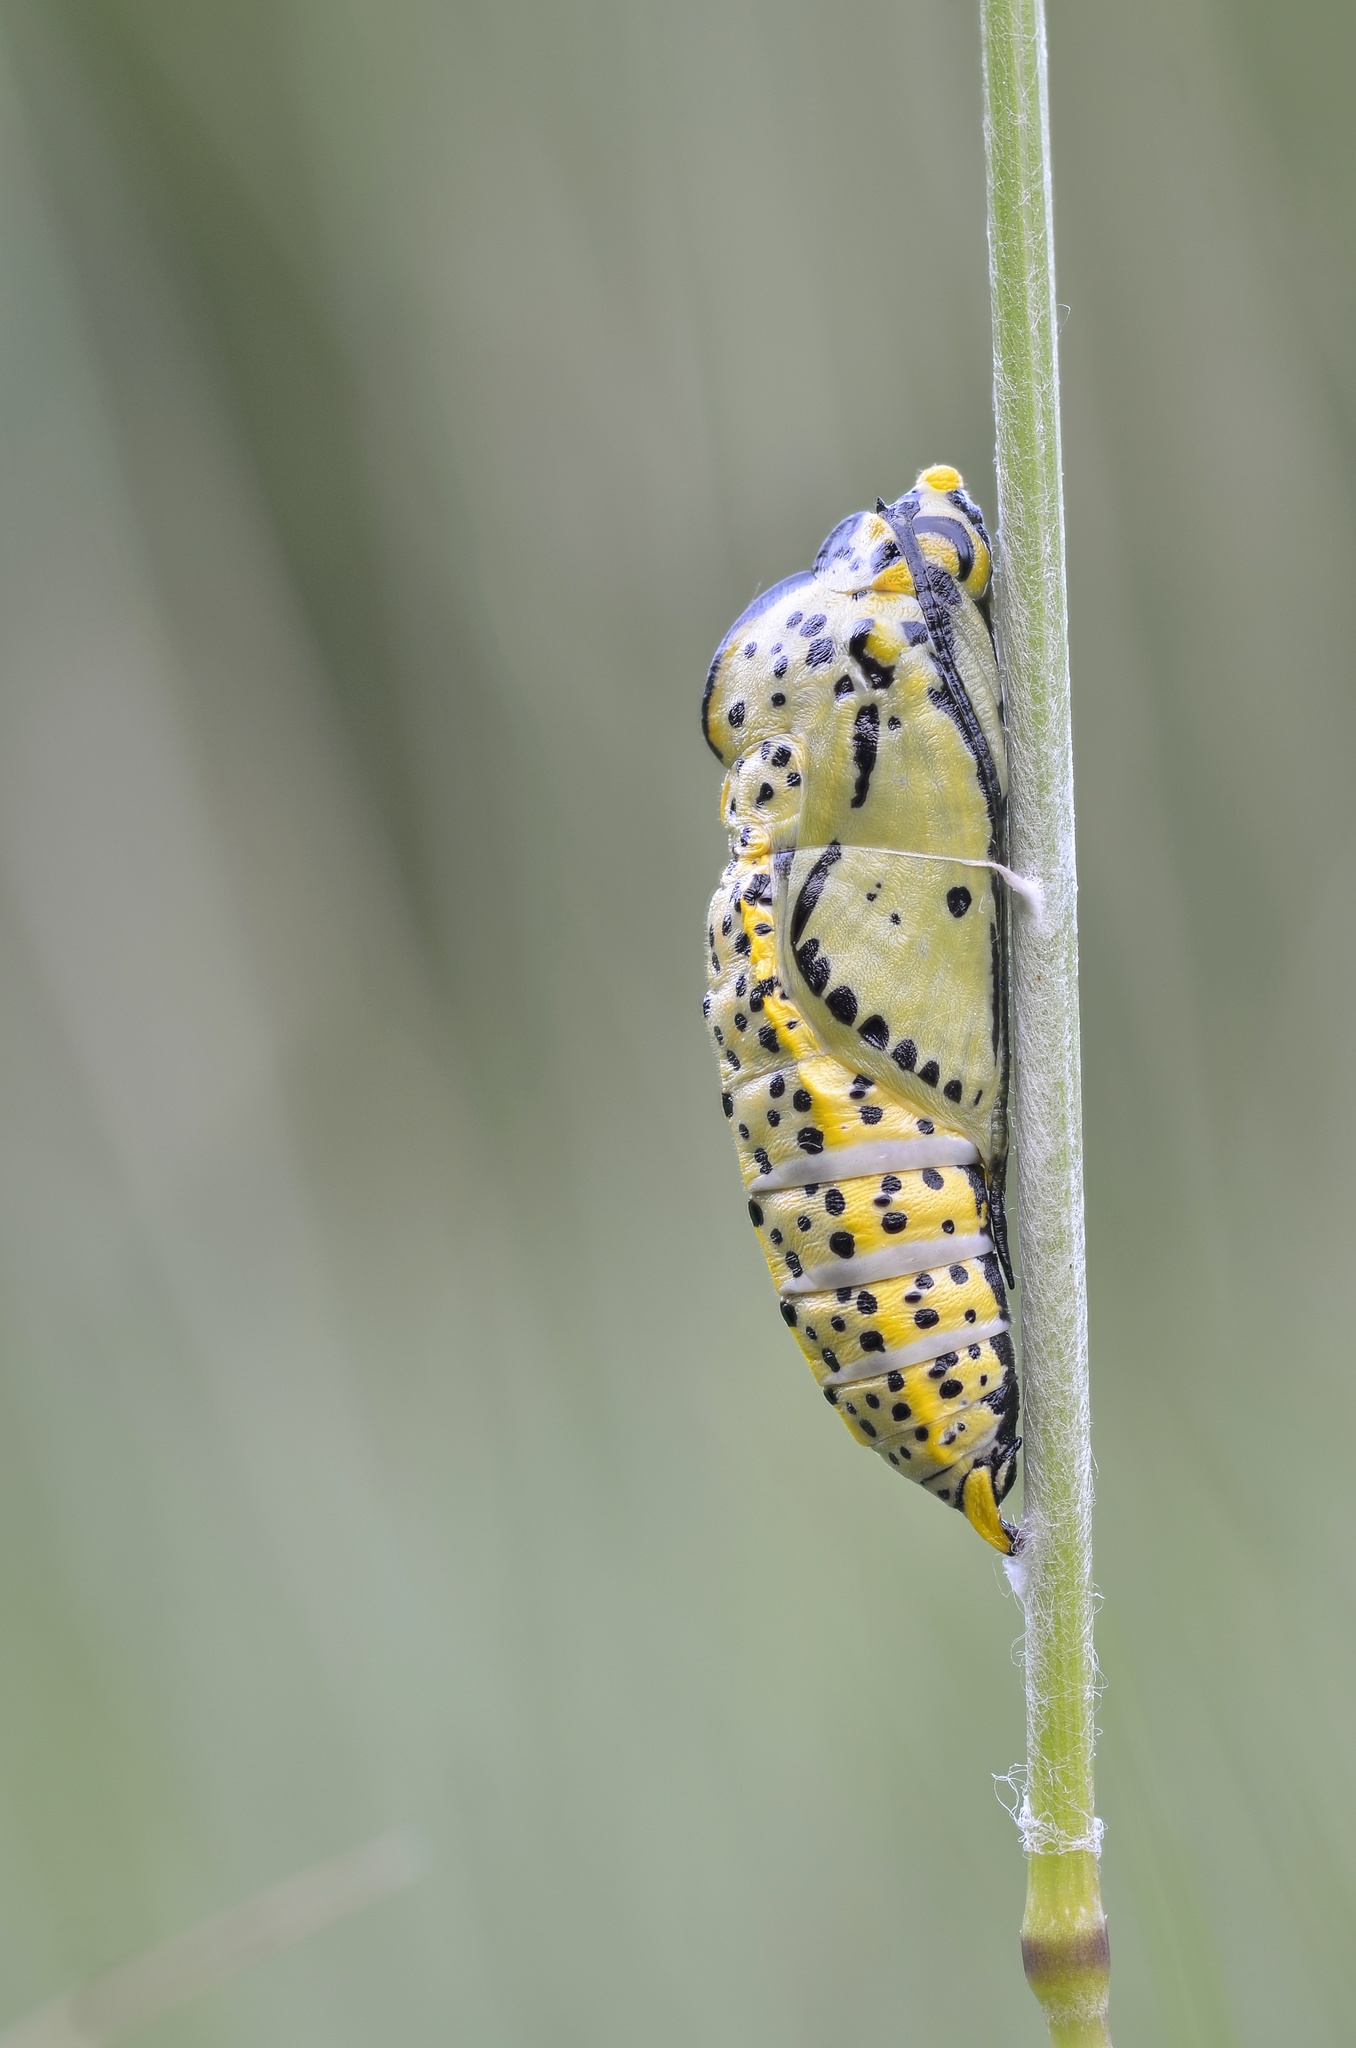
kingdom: Animalia
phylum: Arthropoda
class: Insecta
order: Lepidoptera
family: Pieridae
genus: Aporia
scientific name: Aporia crataegi
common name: Black-veined white
